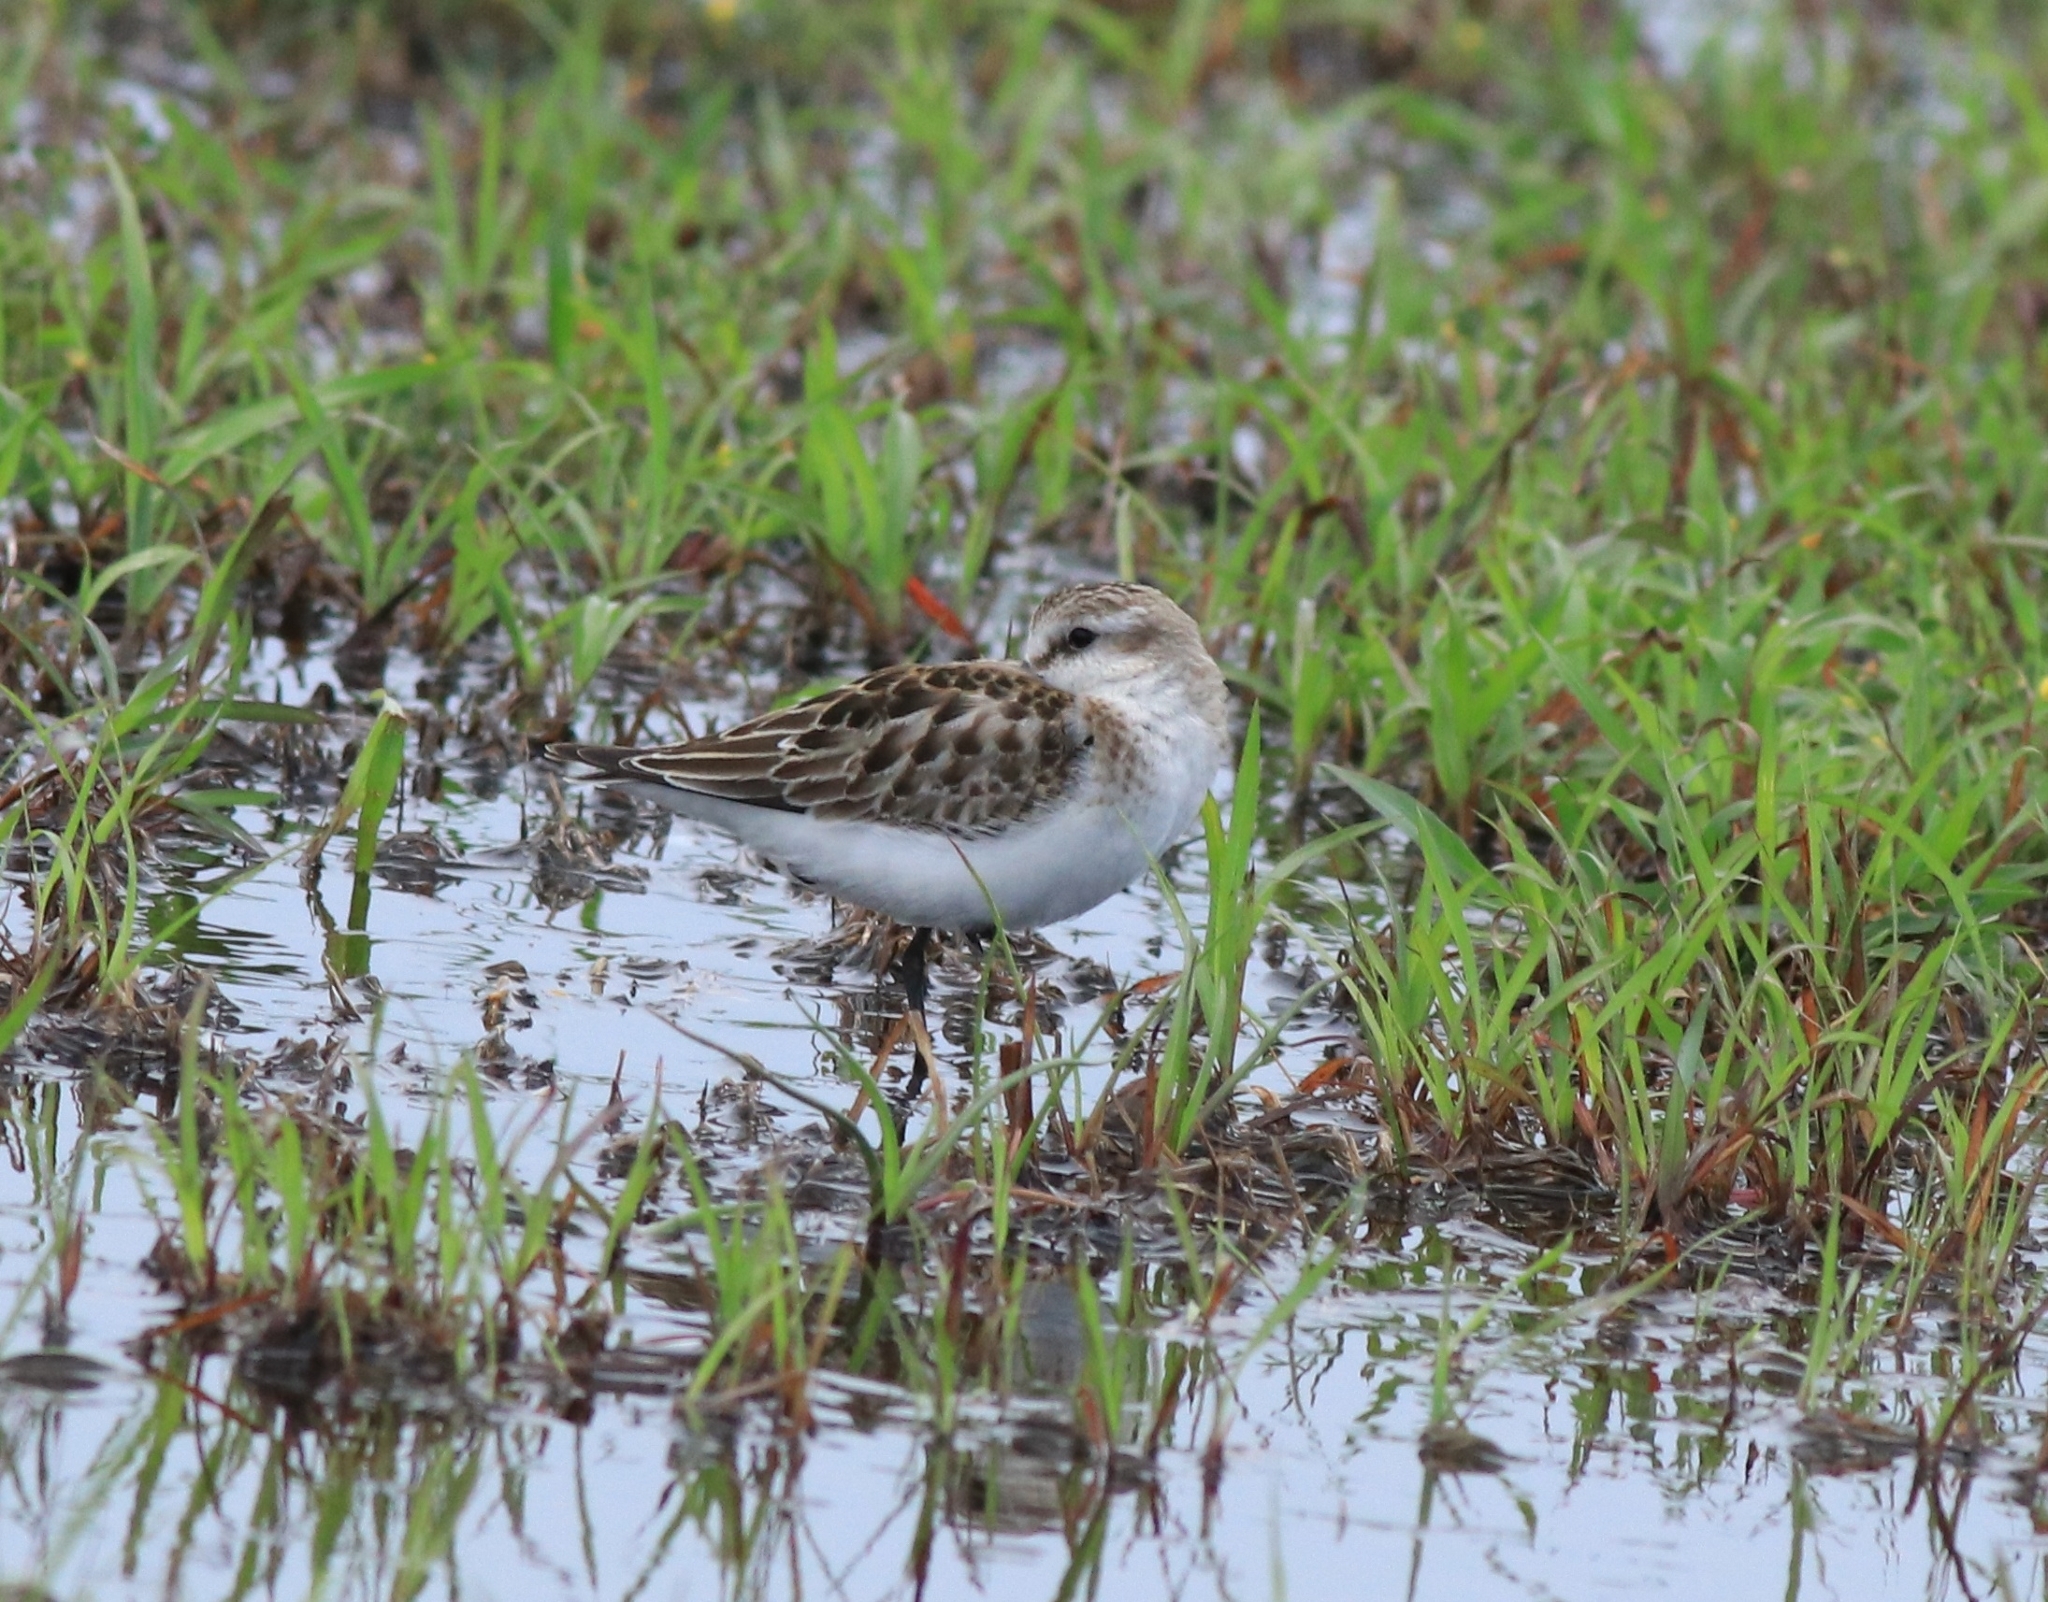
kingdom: Animalia
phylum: Chordata
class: Aves
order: Charadriiformes
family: Scolopacidae
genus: Calidris
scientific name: Calidris minuta
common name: Little stint
